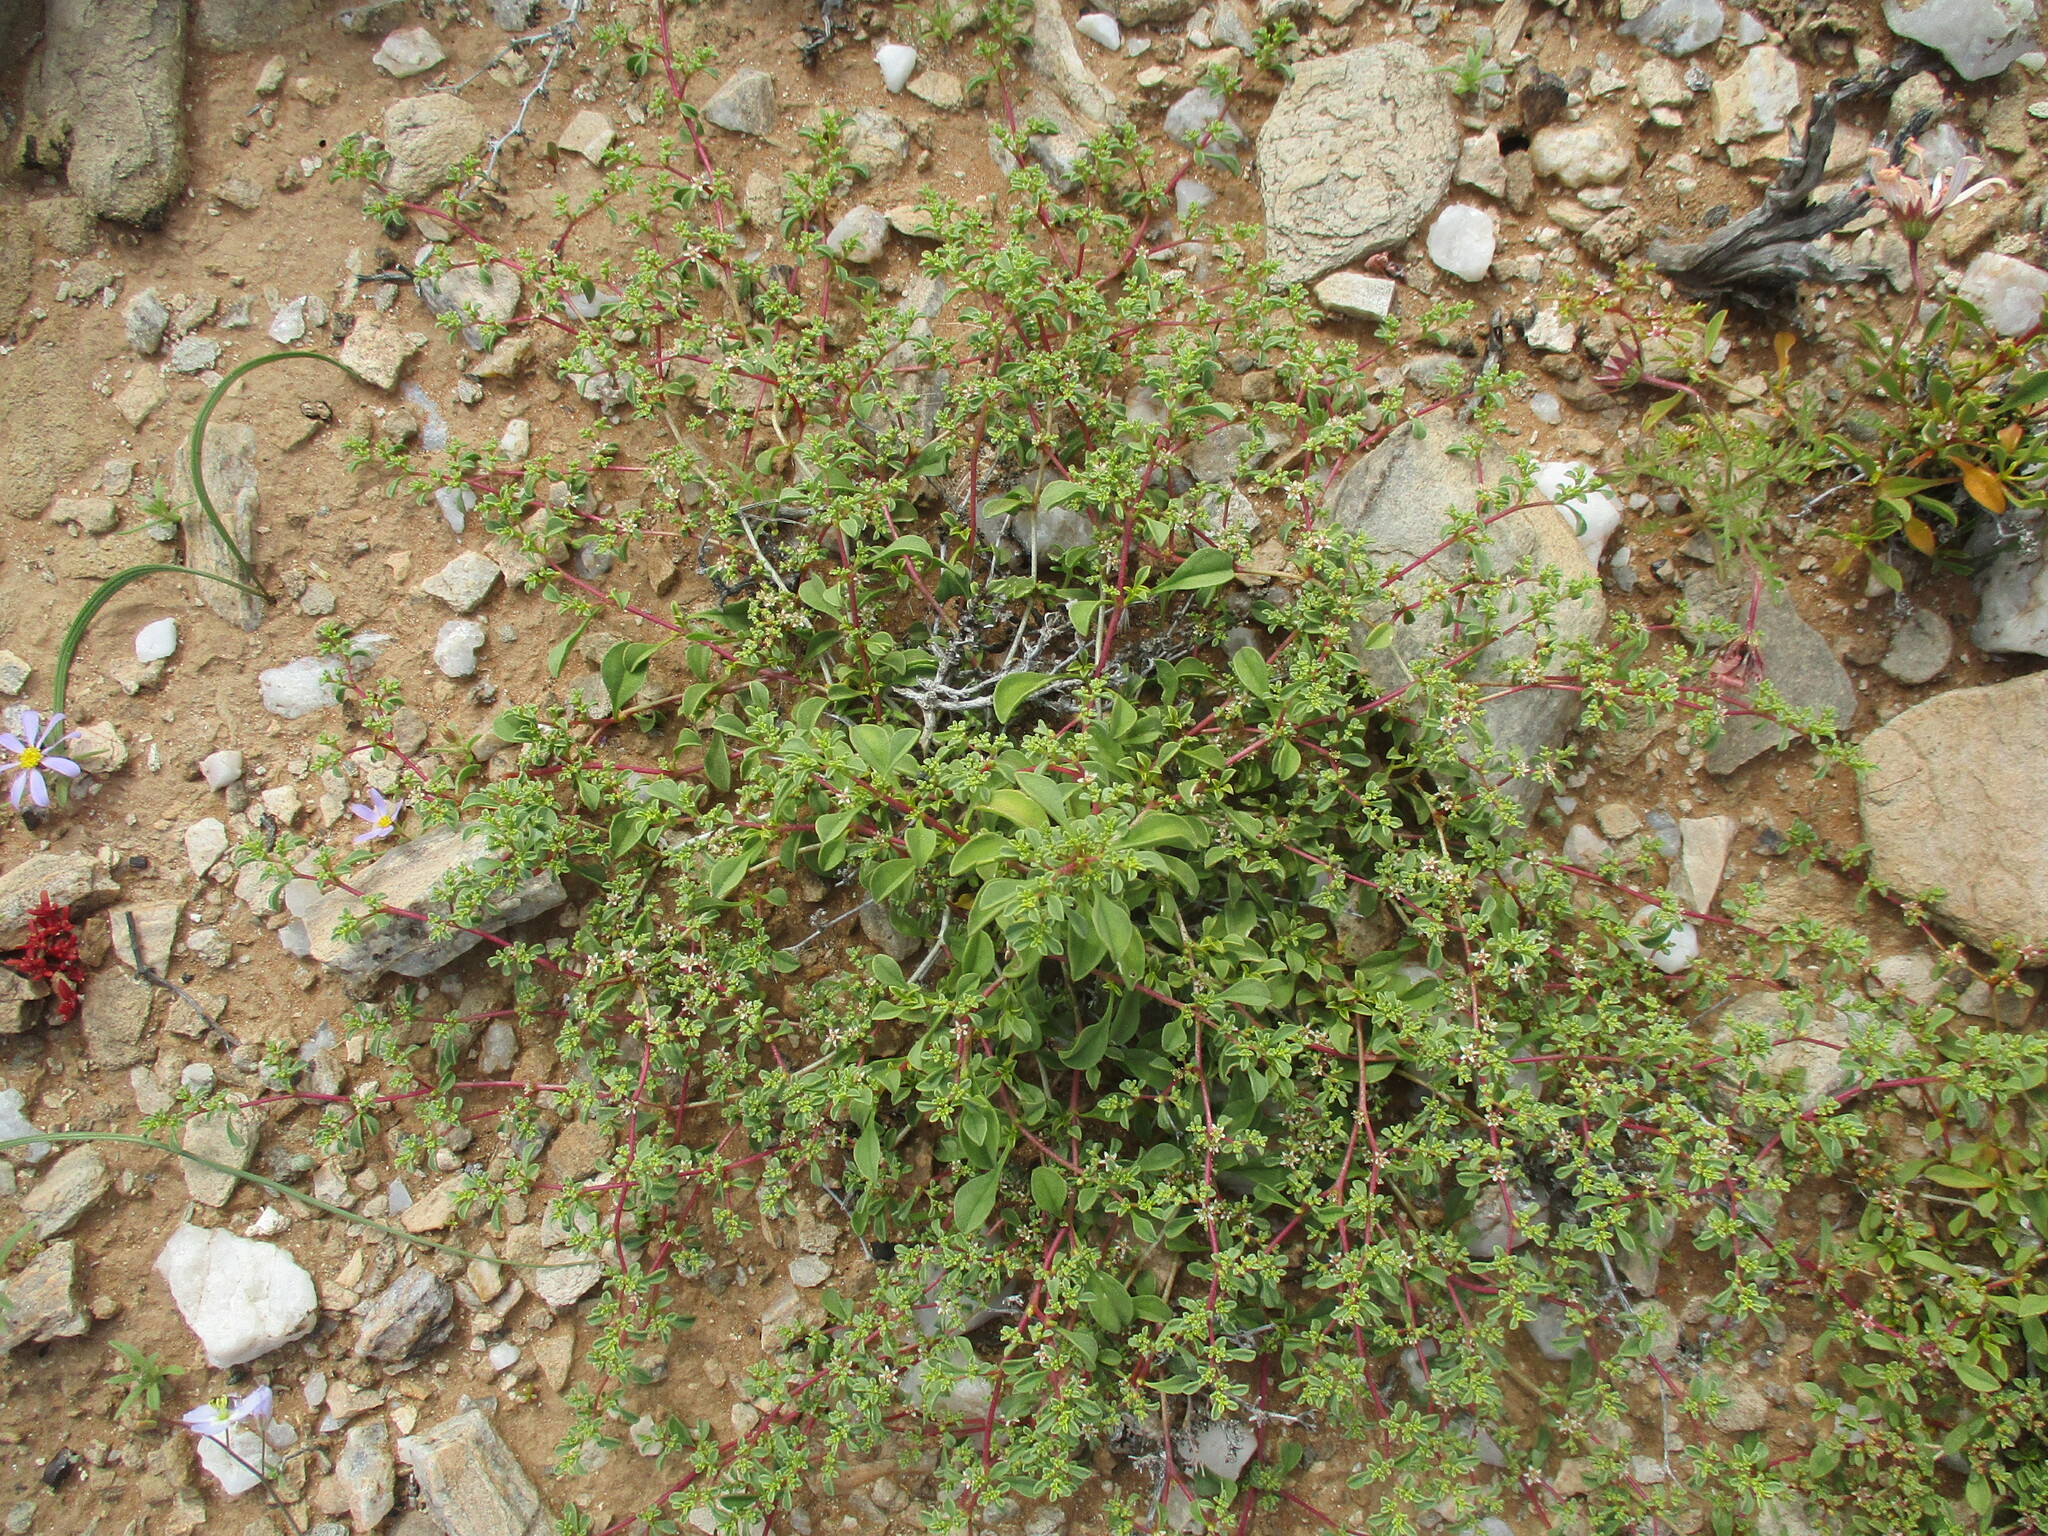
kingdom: Plantae
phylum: Tracheophyta
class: Magnoliopsida
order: Caryophyllales
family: Aizoaceae
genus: Aizoon
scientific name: Aizoon mezianum
